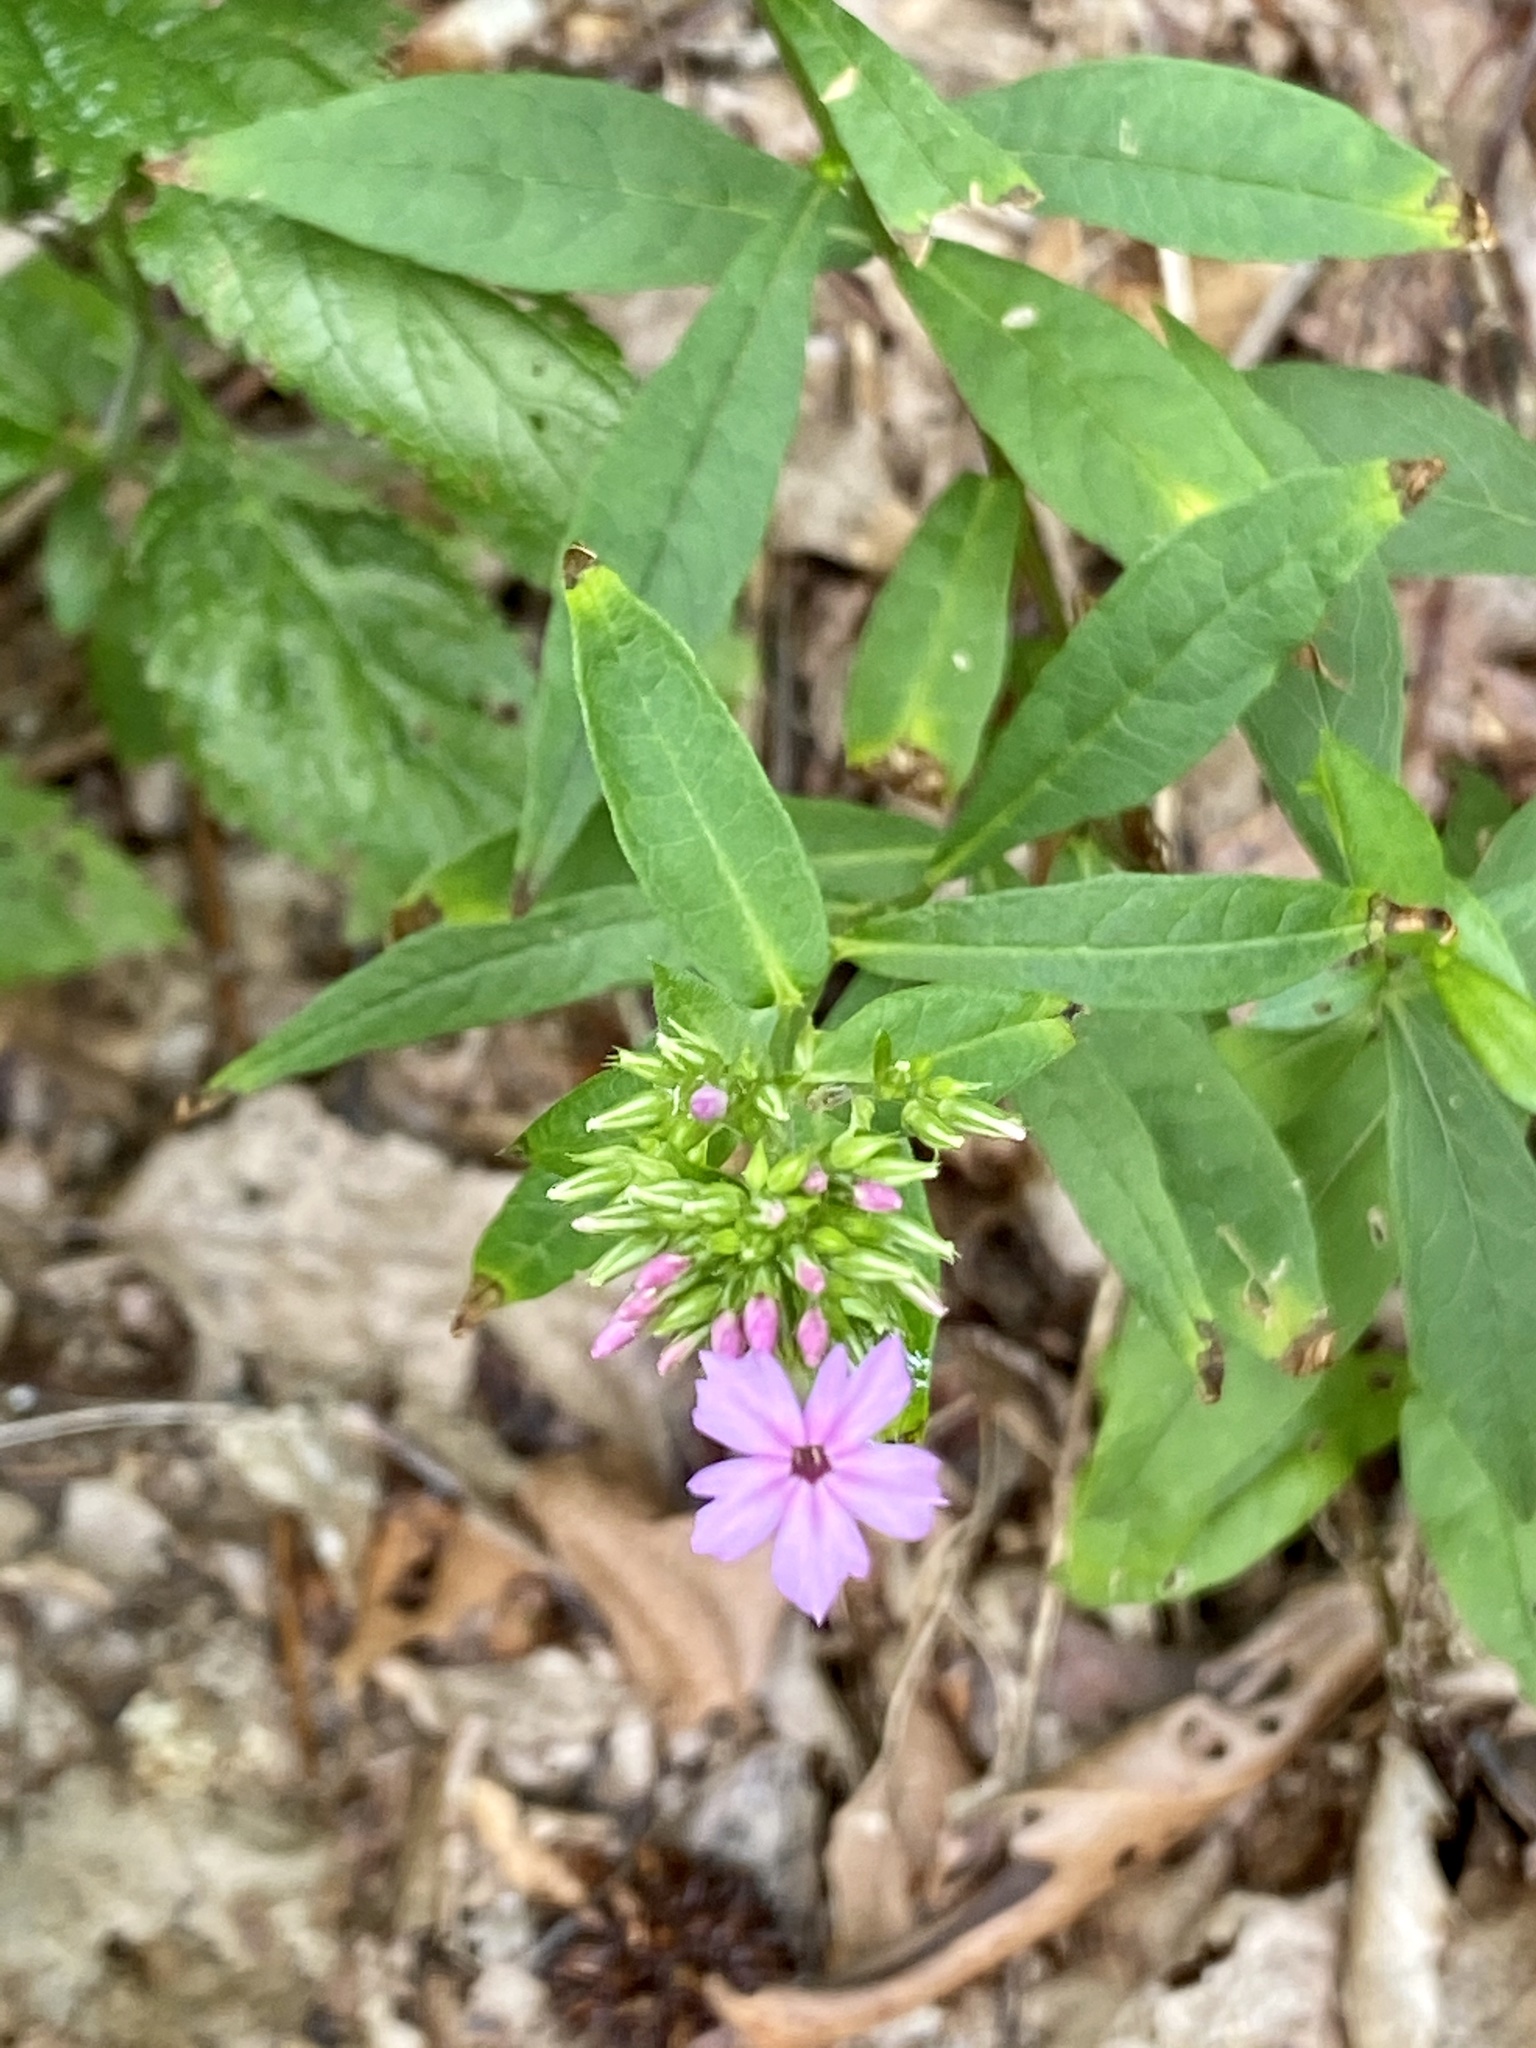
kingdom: Plantae
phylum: Tracheophyta
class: Magnoliopsida
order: Ericales
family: Polemoniaceae
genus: Phlox
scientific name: Phlox paniculata
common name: Fall phlox
